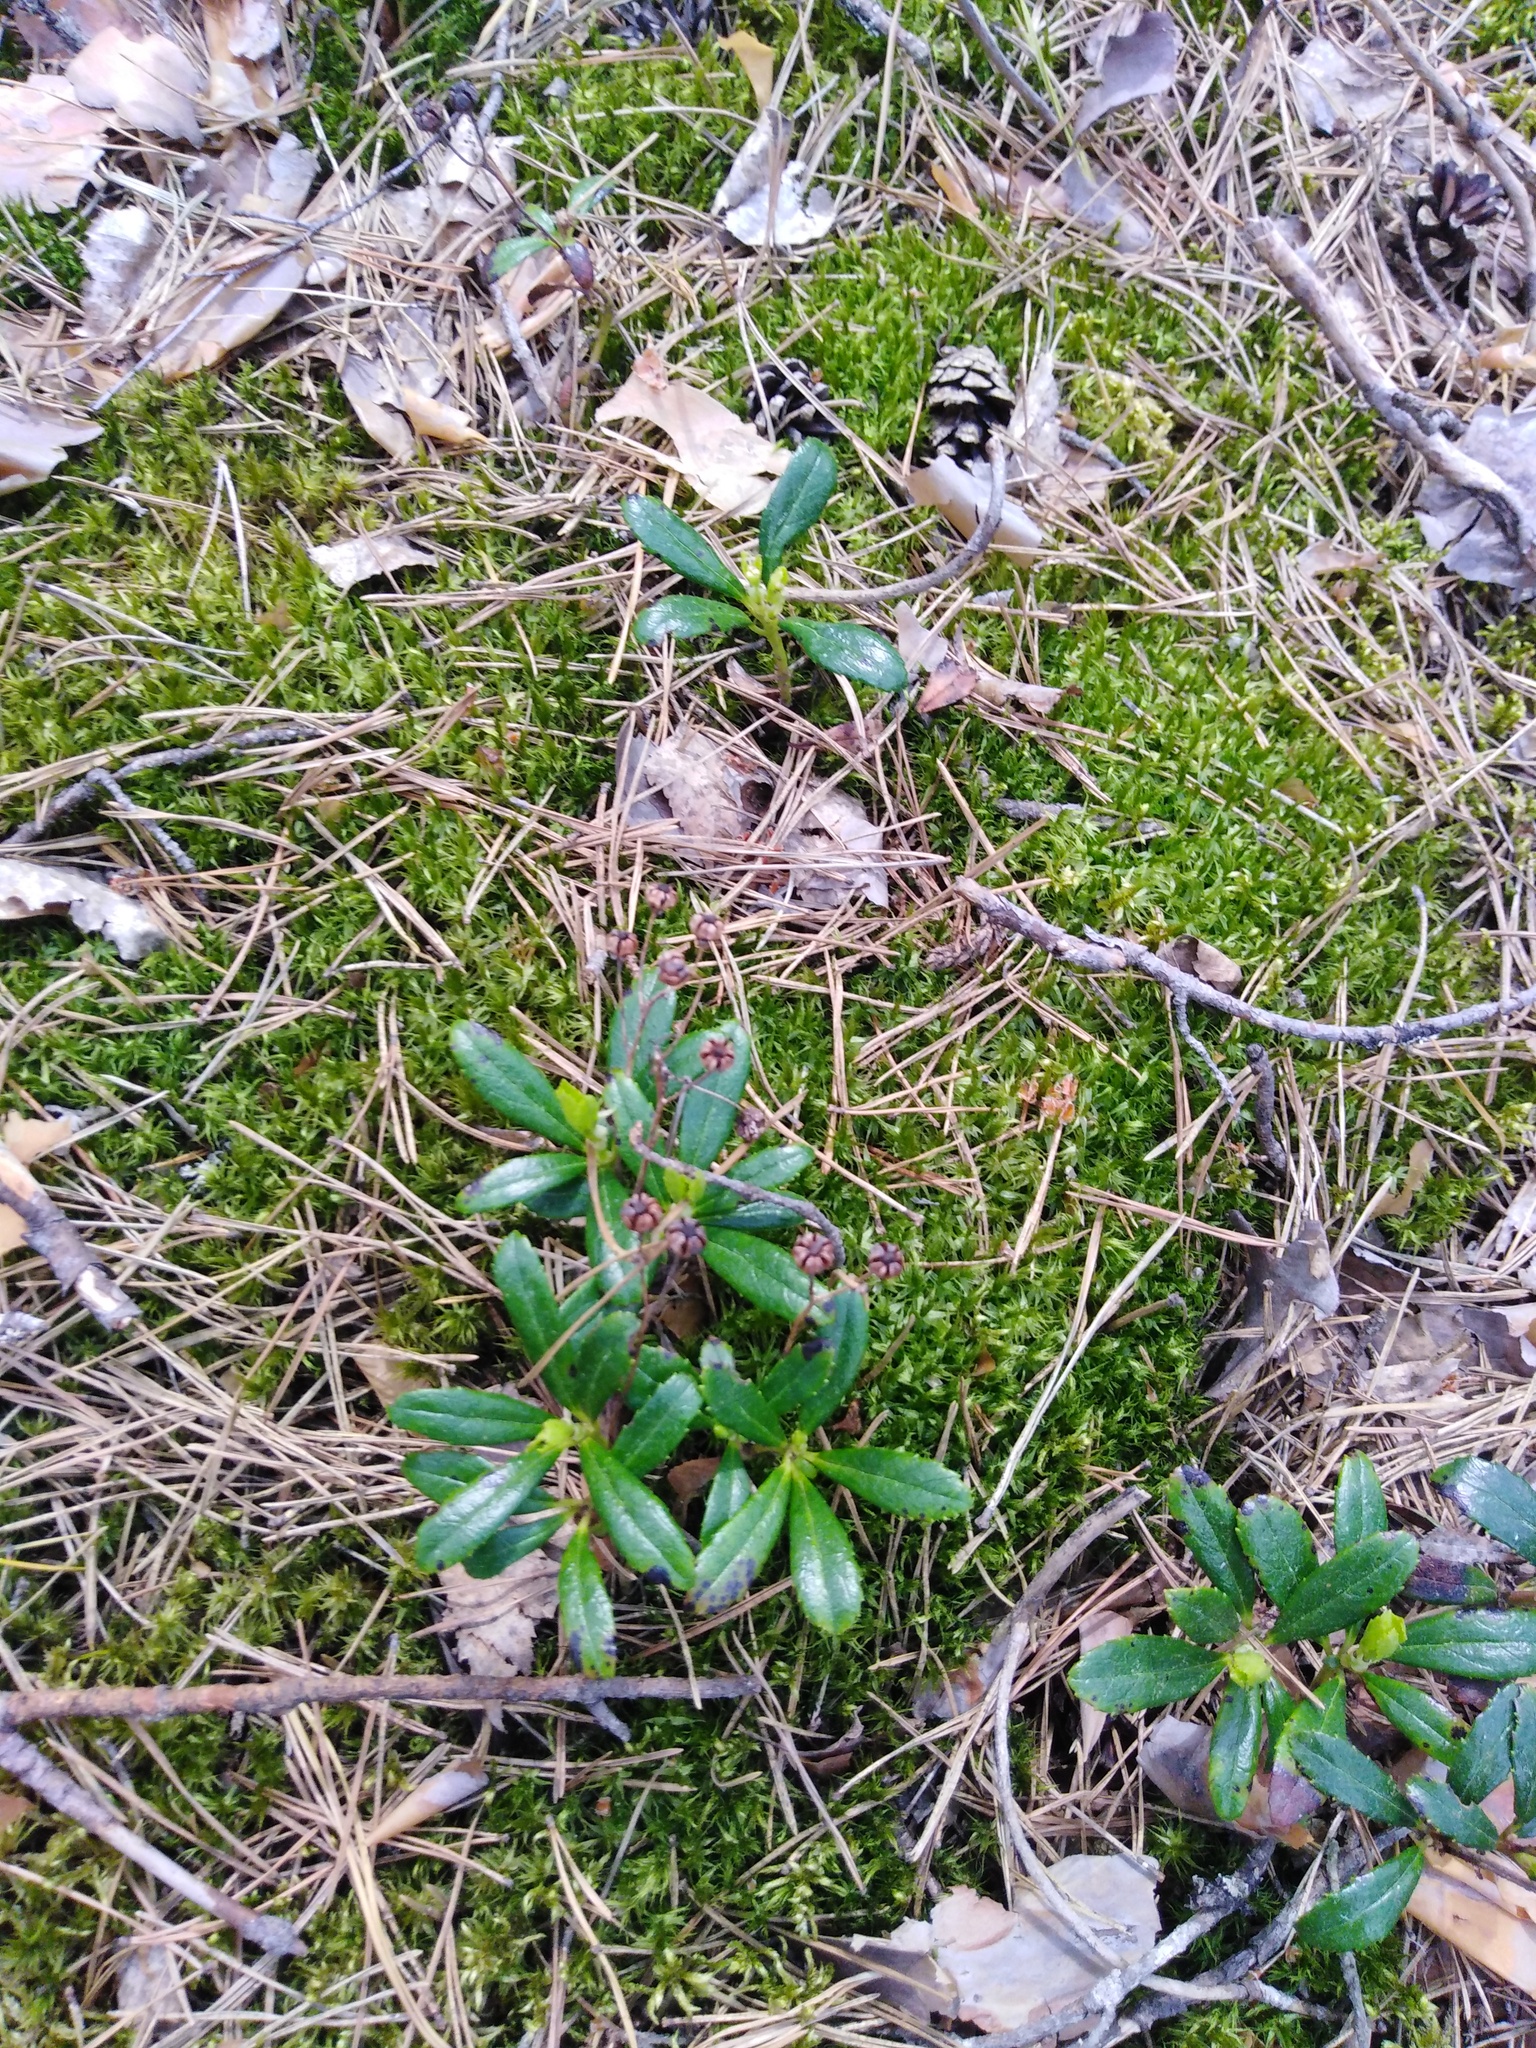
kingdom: Plantae
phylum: Tracheophyta
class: Magnoliopsida
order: Ericales
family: Ericaceae
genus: Chimaphila
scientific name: Chimaphila umbellata
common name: Pipsissewa
